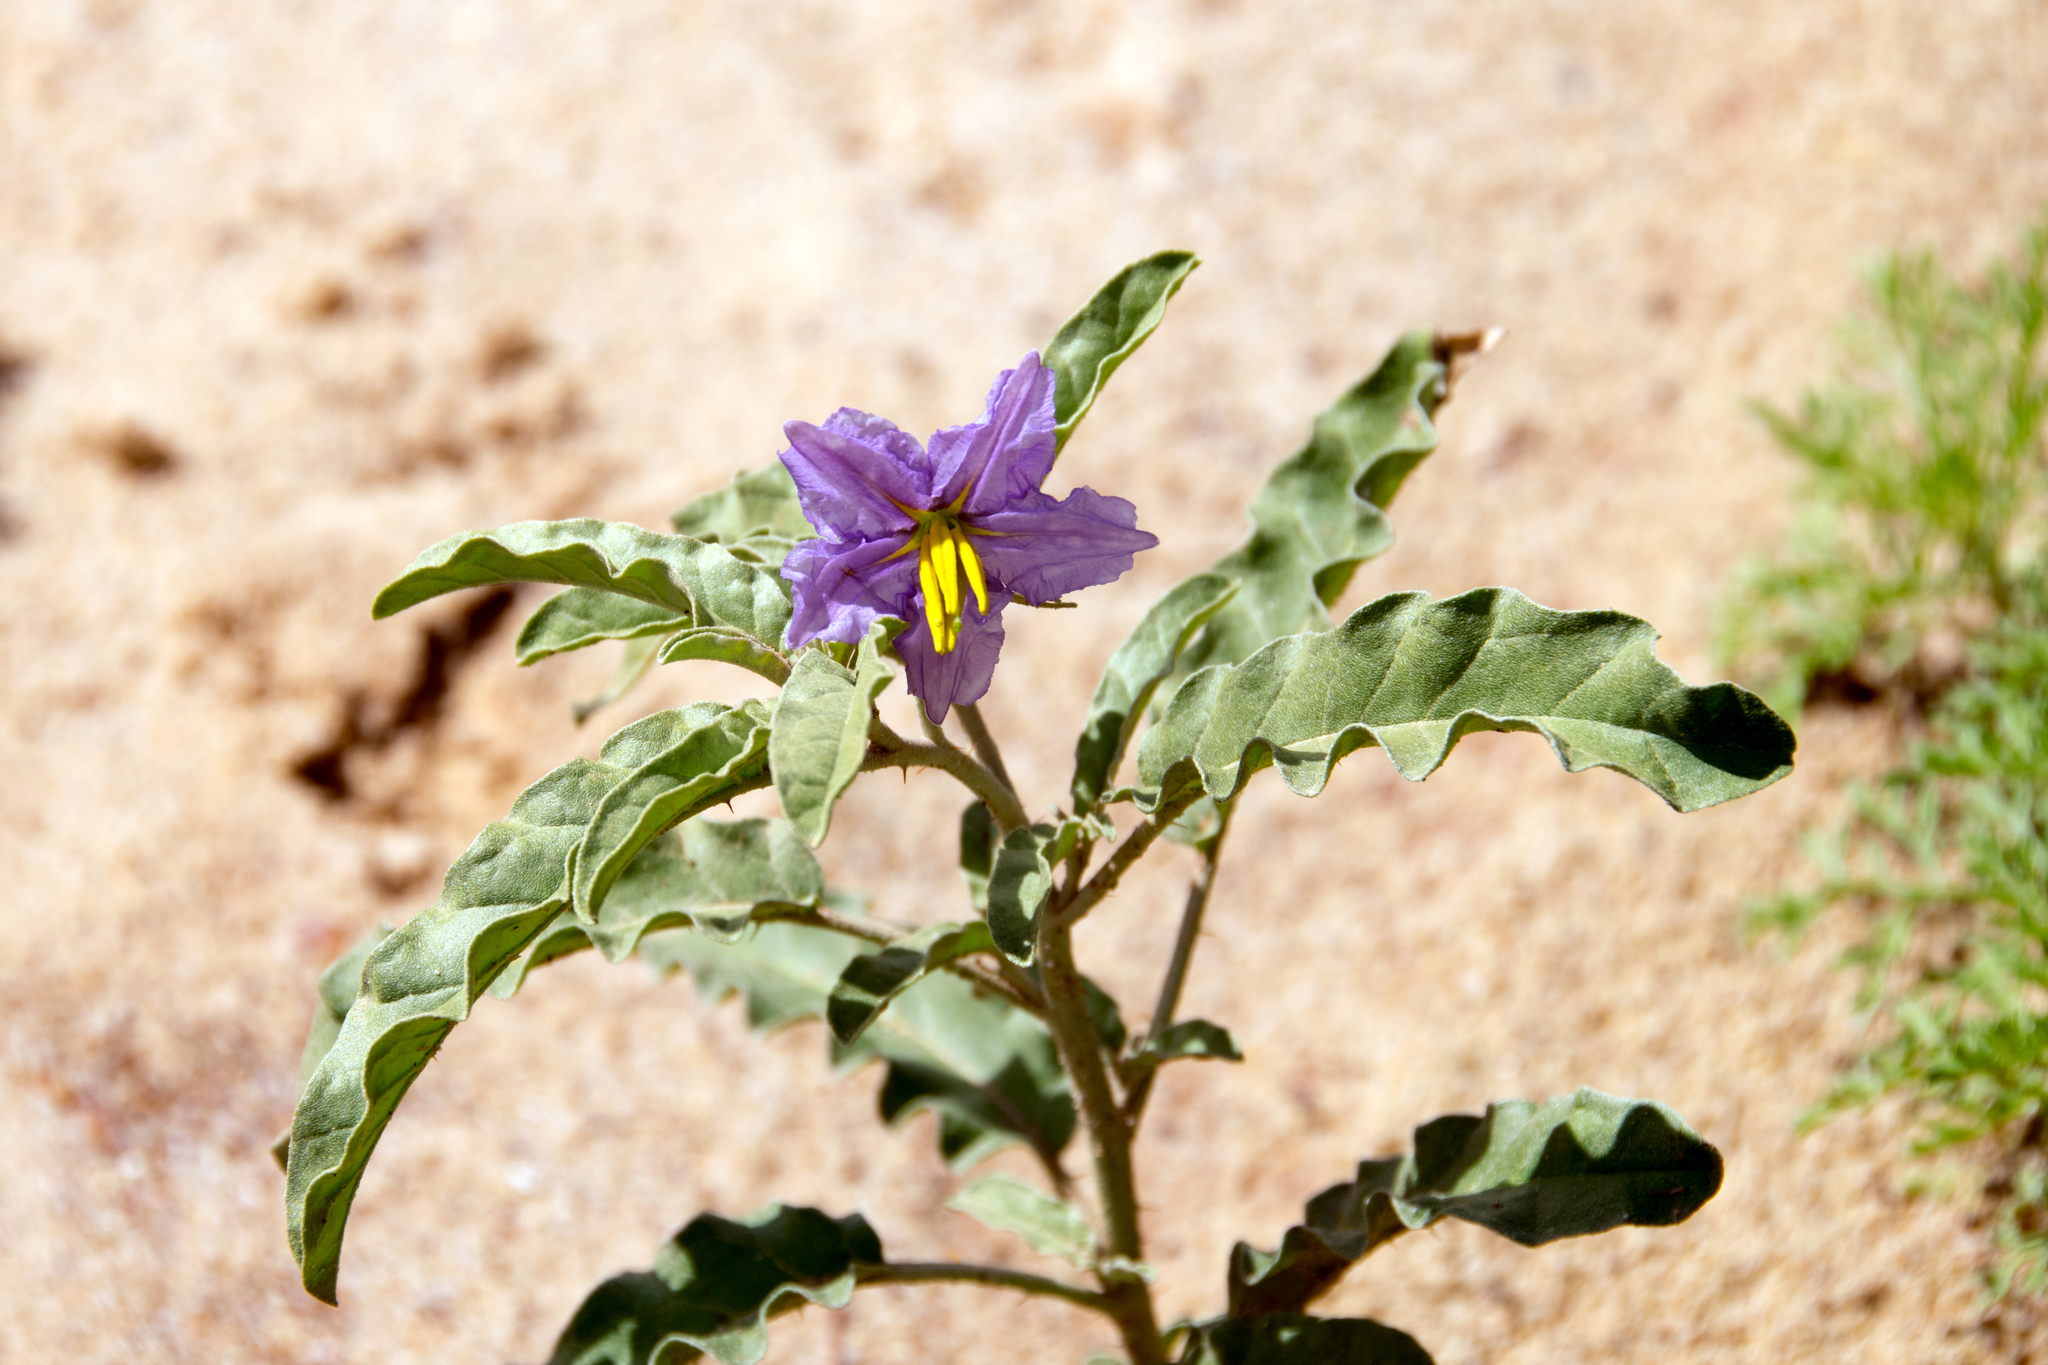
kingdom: Plantae
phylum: Tracheophyta
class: Magnoliopsida
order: Solanales
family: Solanaceae
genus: Solanum
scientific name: Solanum elaeagnifolium
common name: Silverleaf nightshade
